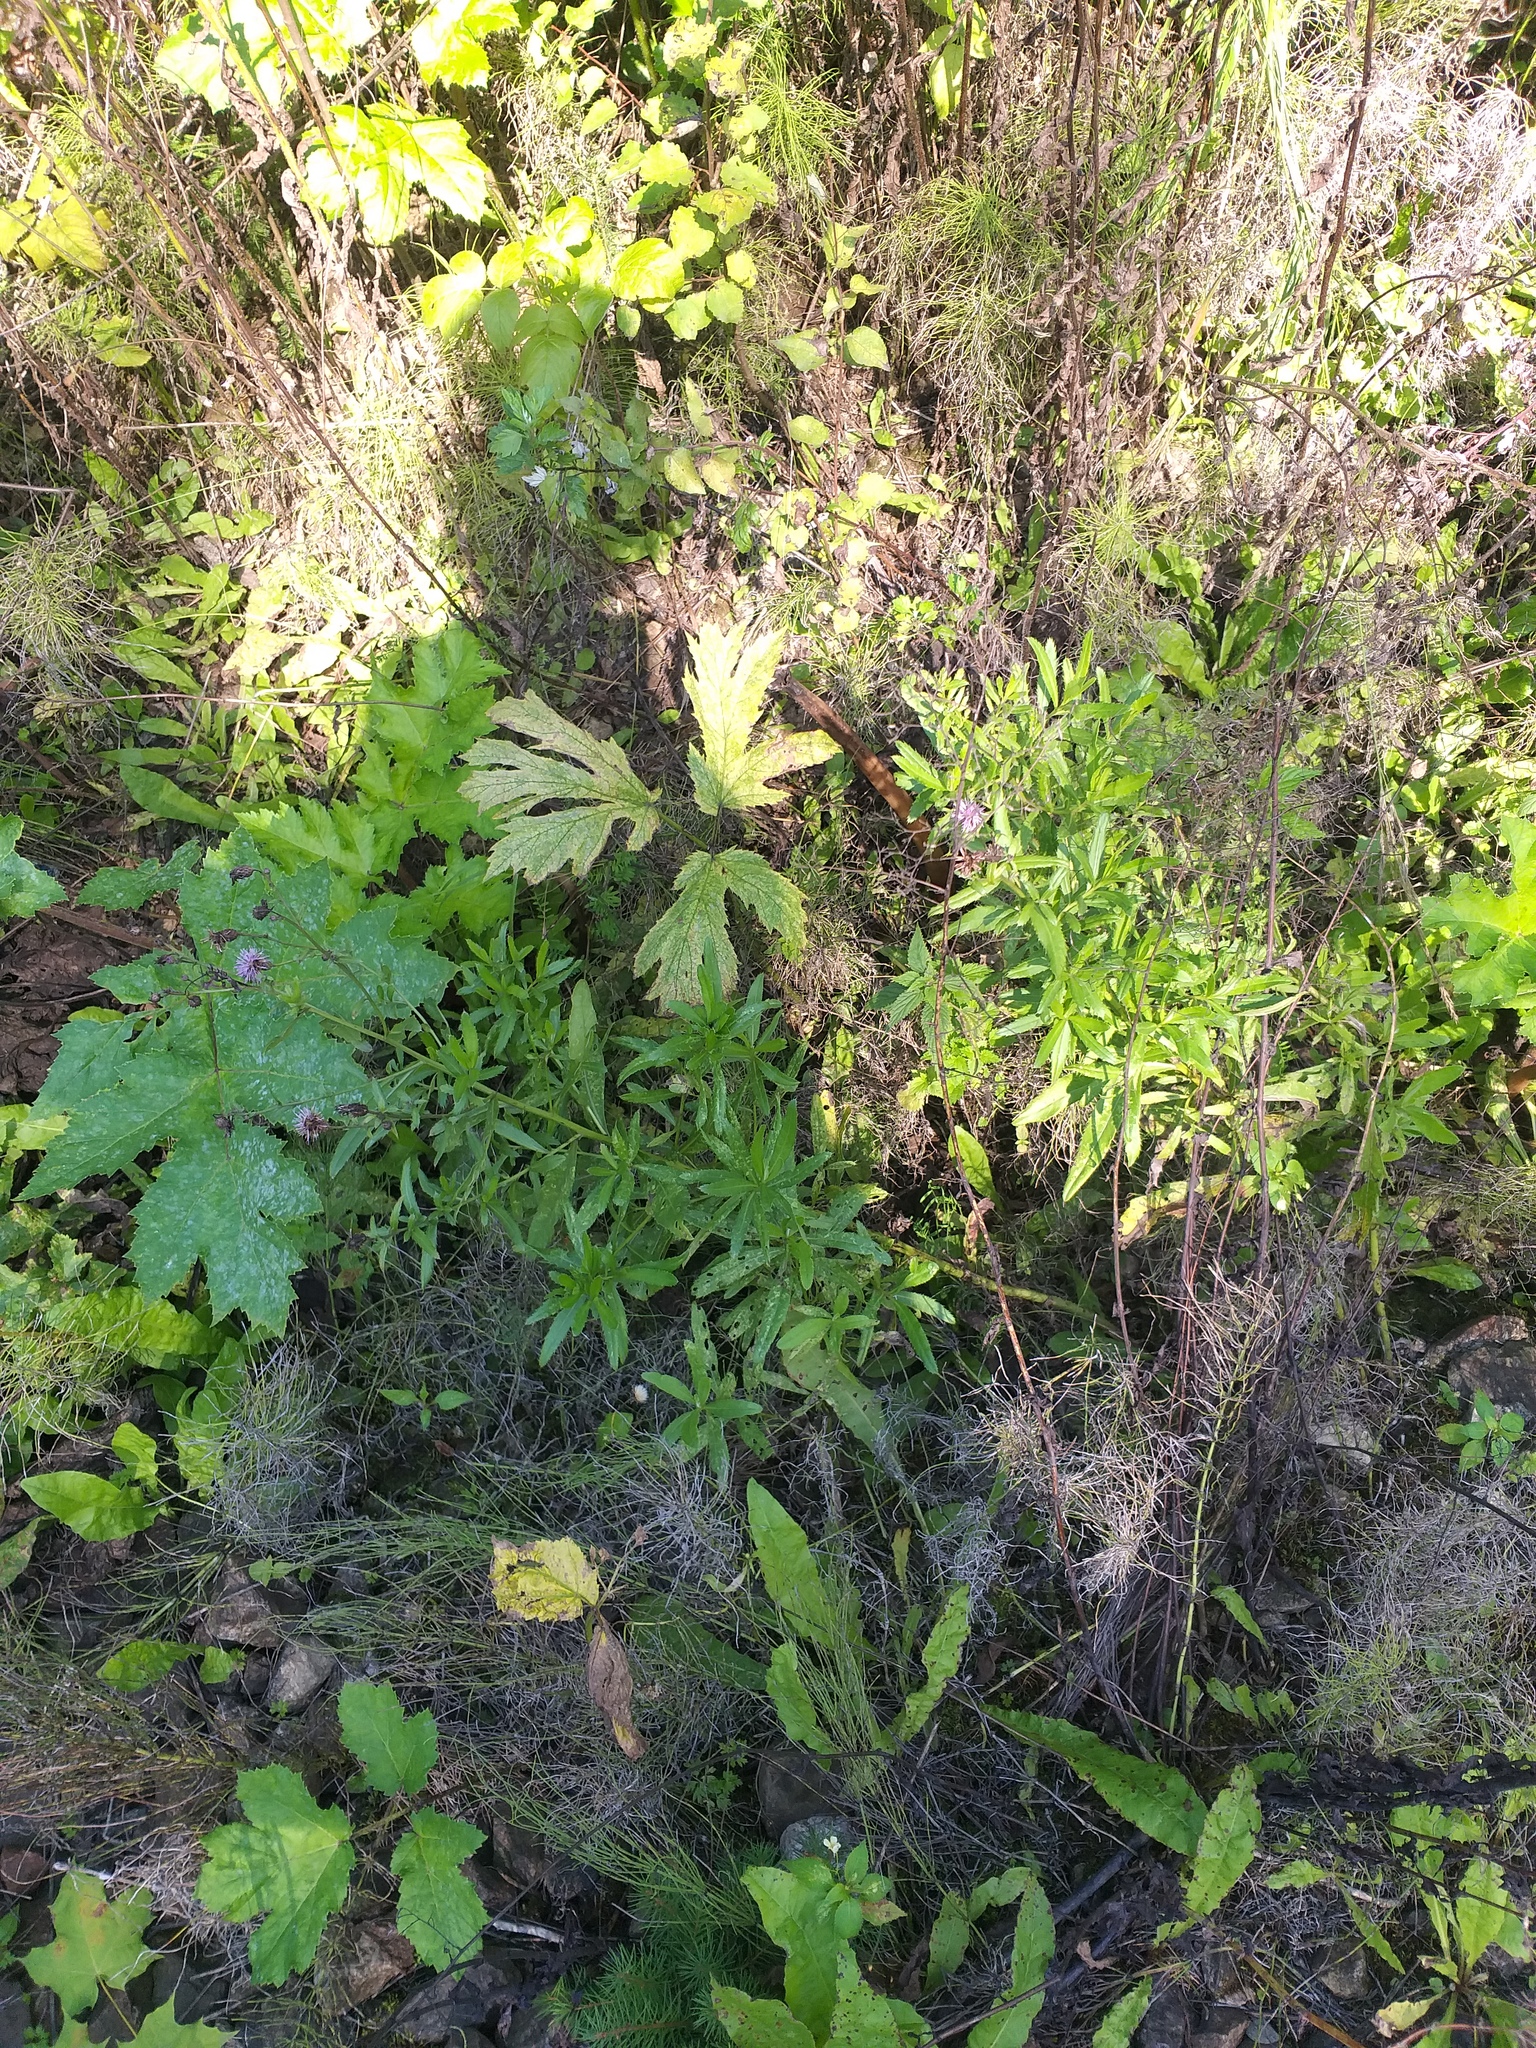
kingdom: Plantae
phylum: Tracheophyta
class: Magnoliopsida
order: Asterales
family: Asteraceae
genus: Cirsium
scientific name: Cirsium arvense
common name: Creeping thistle
